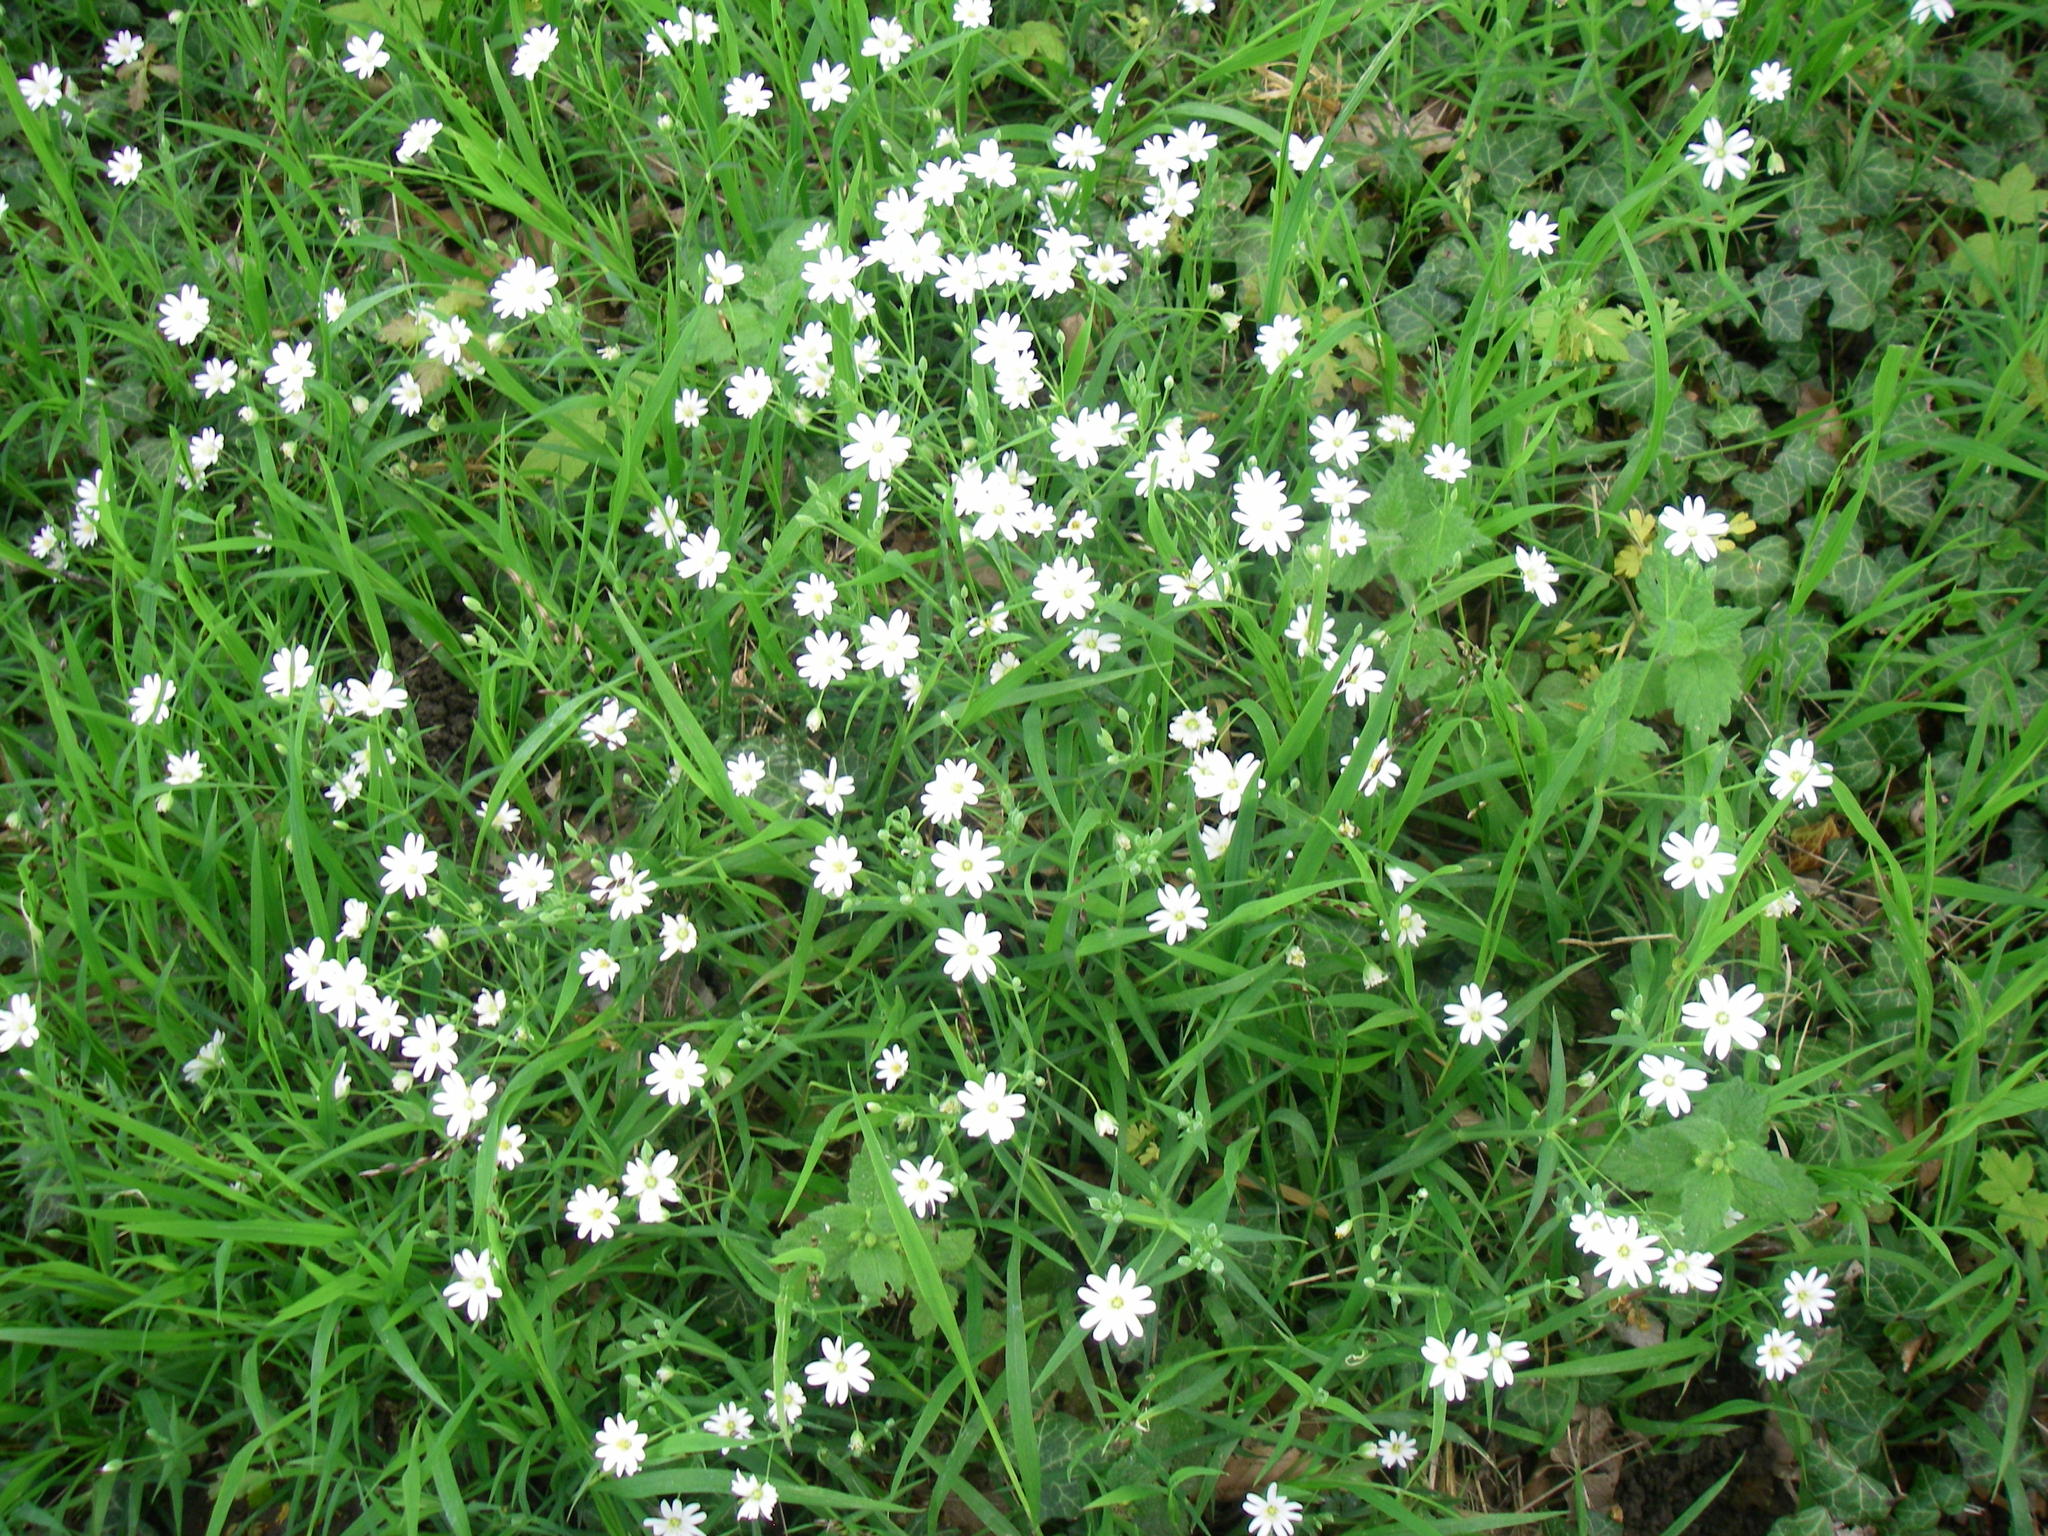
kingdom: Plantae
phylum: Tracheophyta
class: Magnoliopsida
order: Caryophyllales
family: Caryophyllaceae
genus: Rabelera
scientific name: Rabelera holostea
